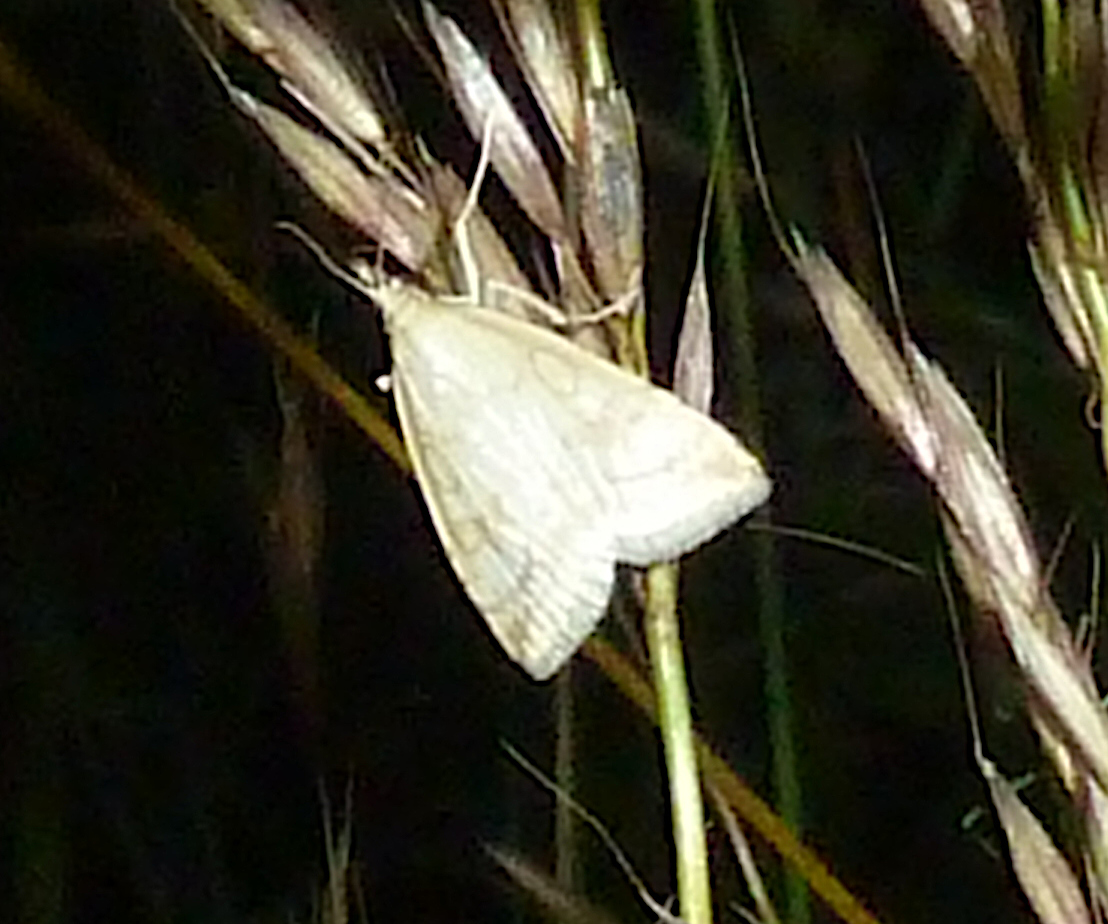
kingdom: Animalia
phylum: Arthropoda
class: Insecta
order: Lepidoptera
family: Crambidae
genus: Udea
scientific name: Udea lutealis
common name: Pale straw pearl
